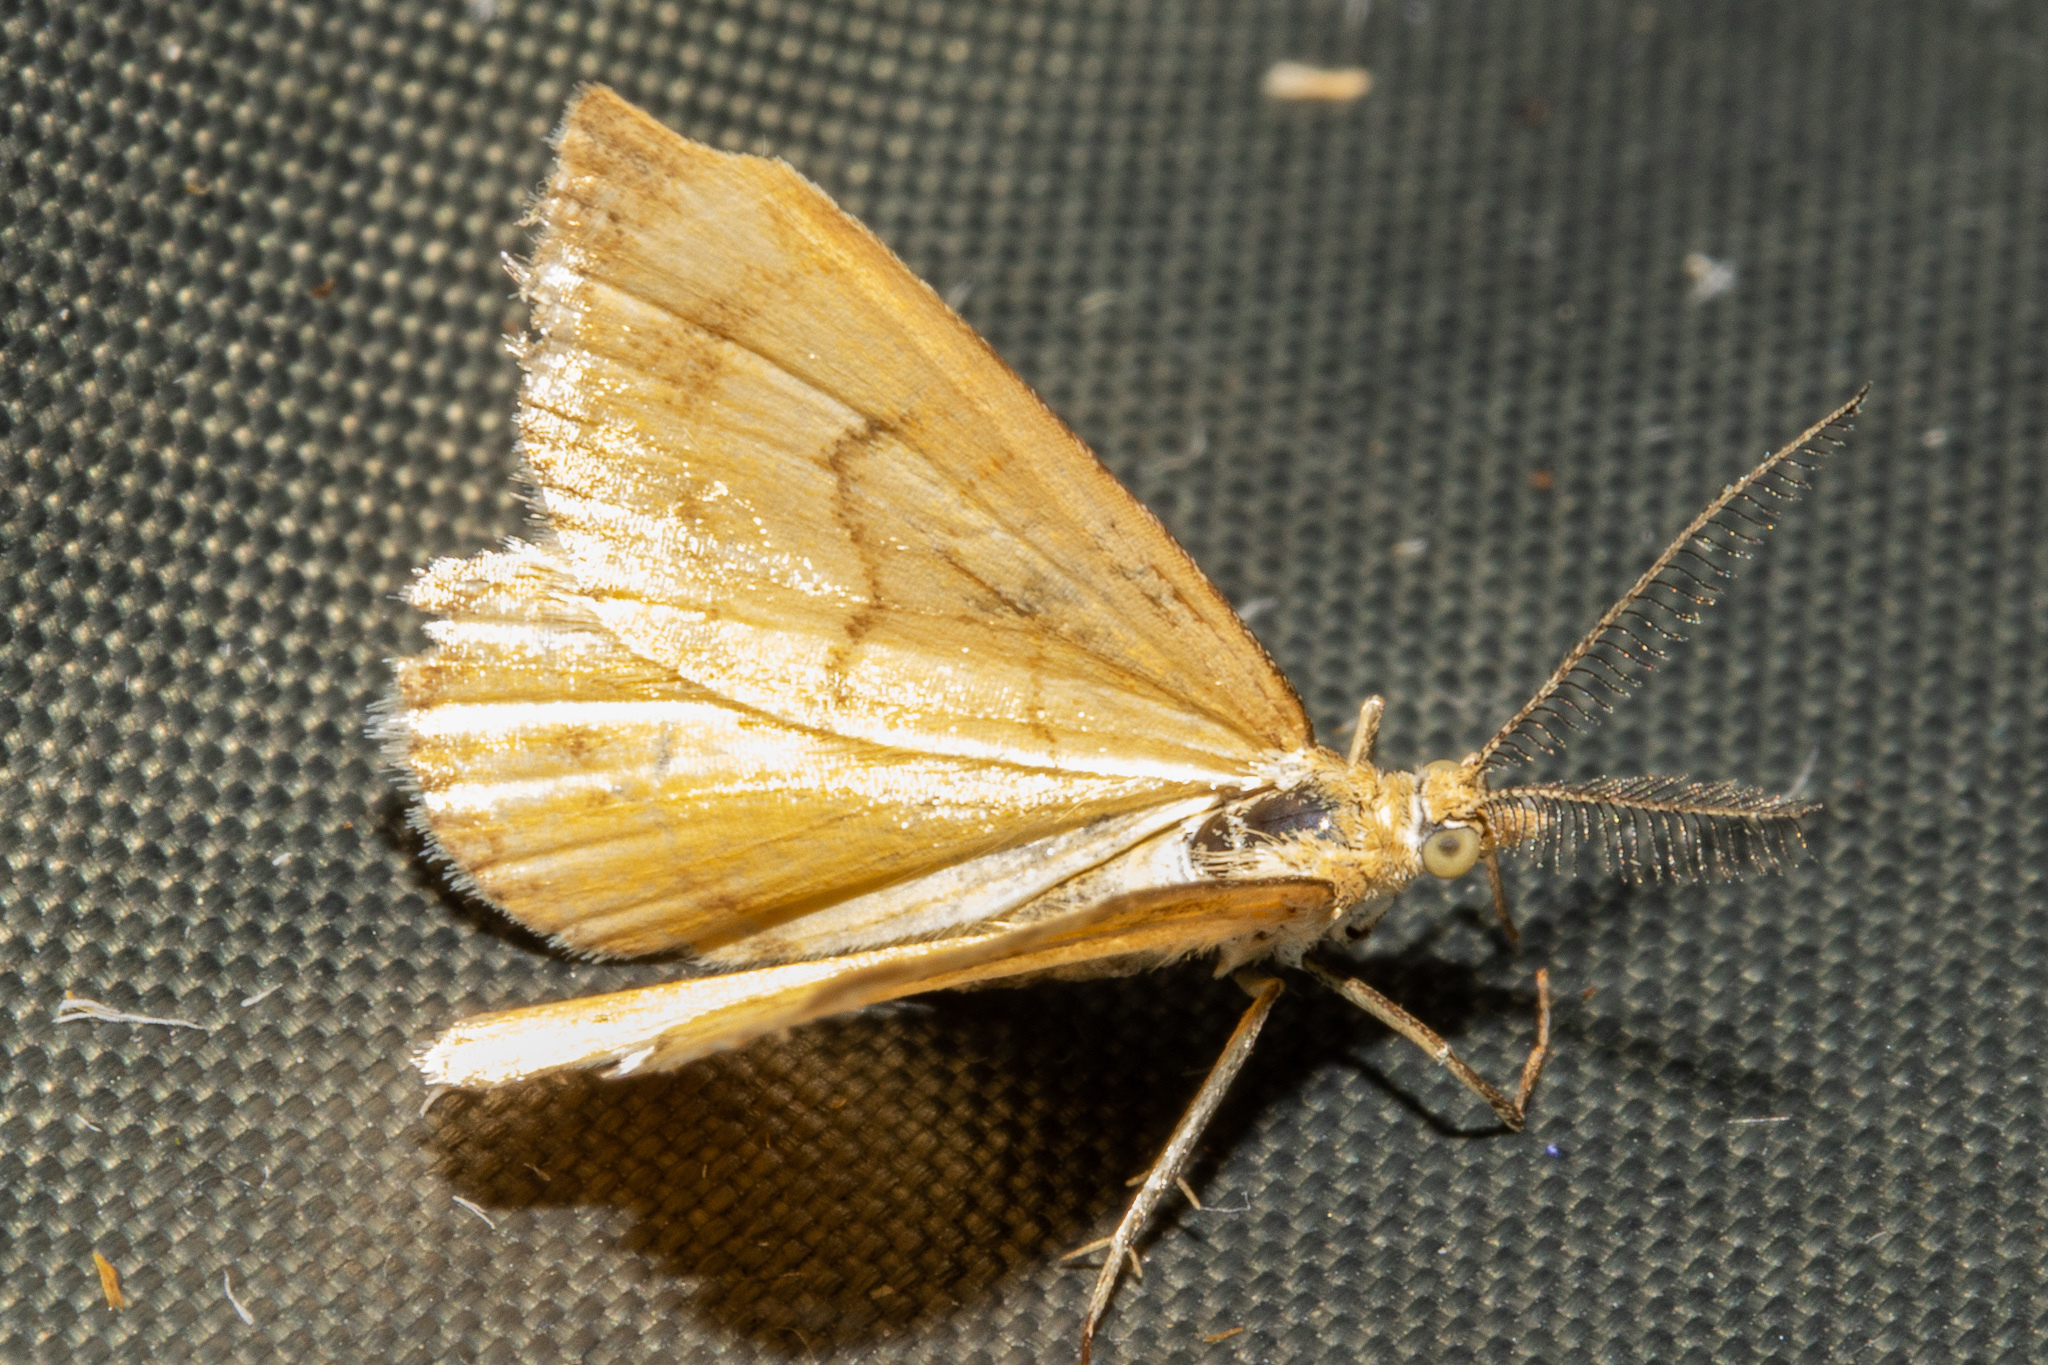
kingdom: Animalia
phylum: Arthropoda
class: Insecta
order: Lepidoptera
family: Geometridae
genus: Asaphodes
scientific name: Asaphodes abrogata
